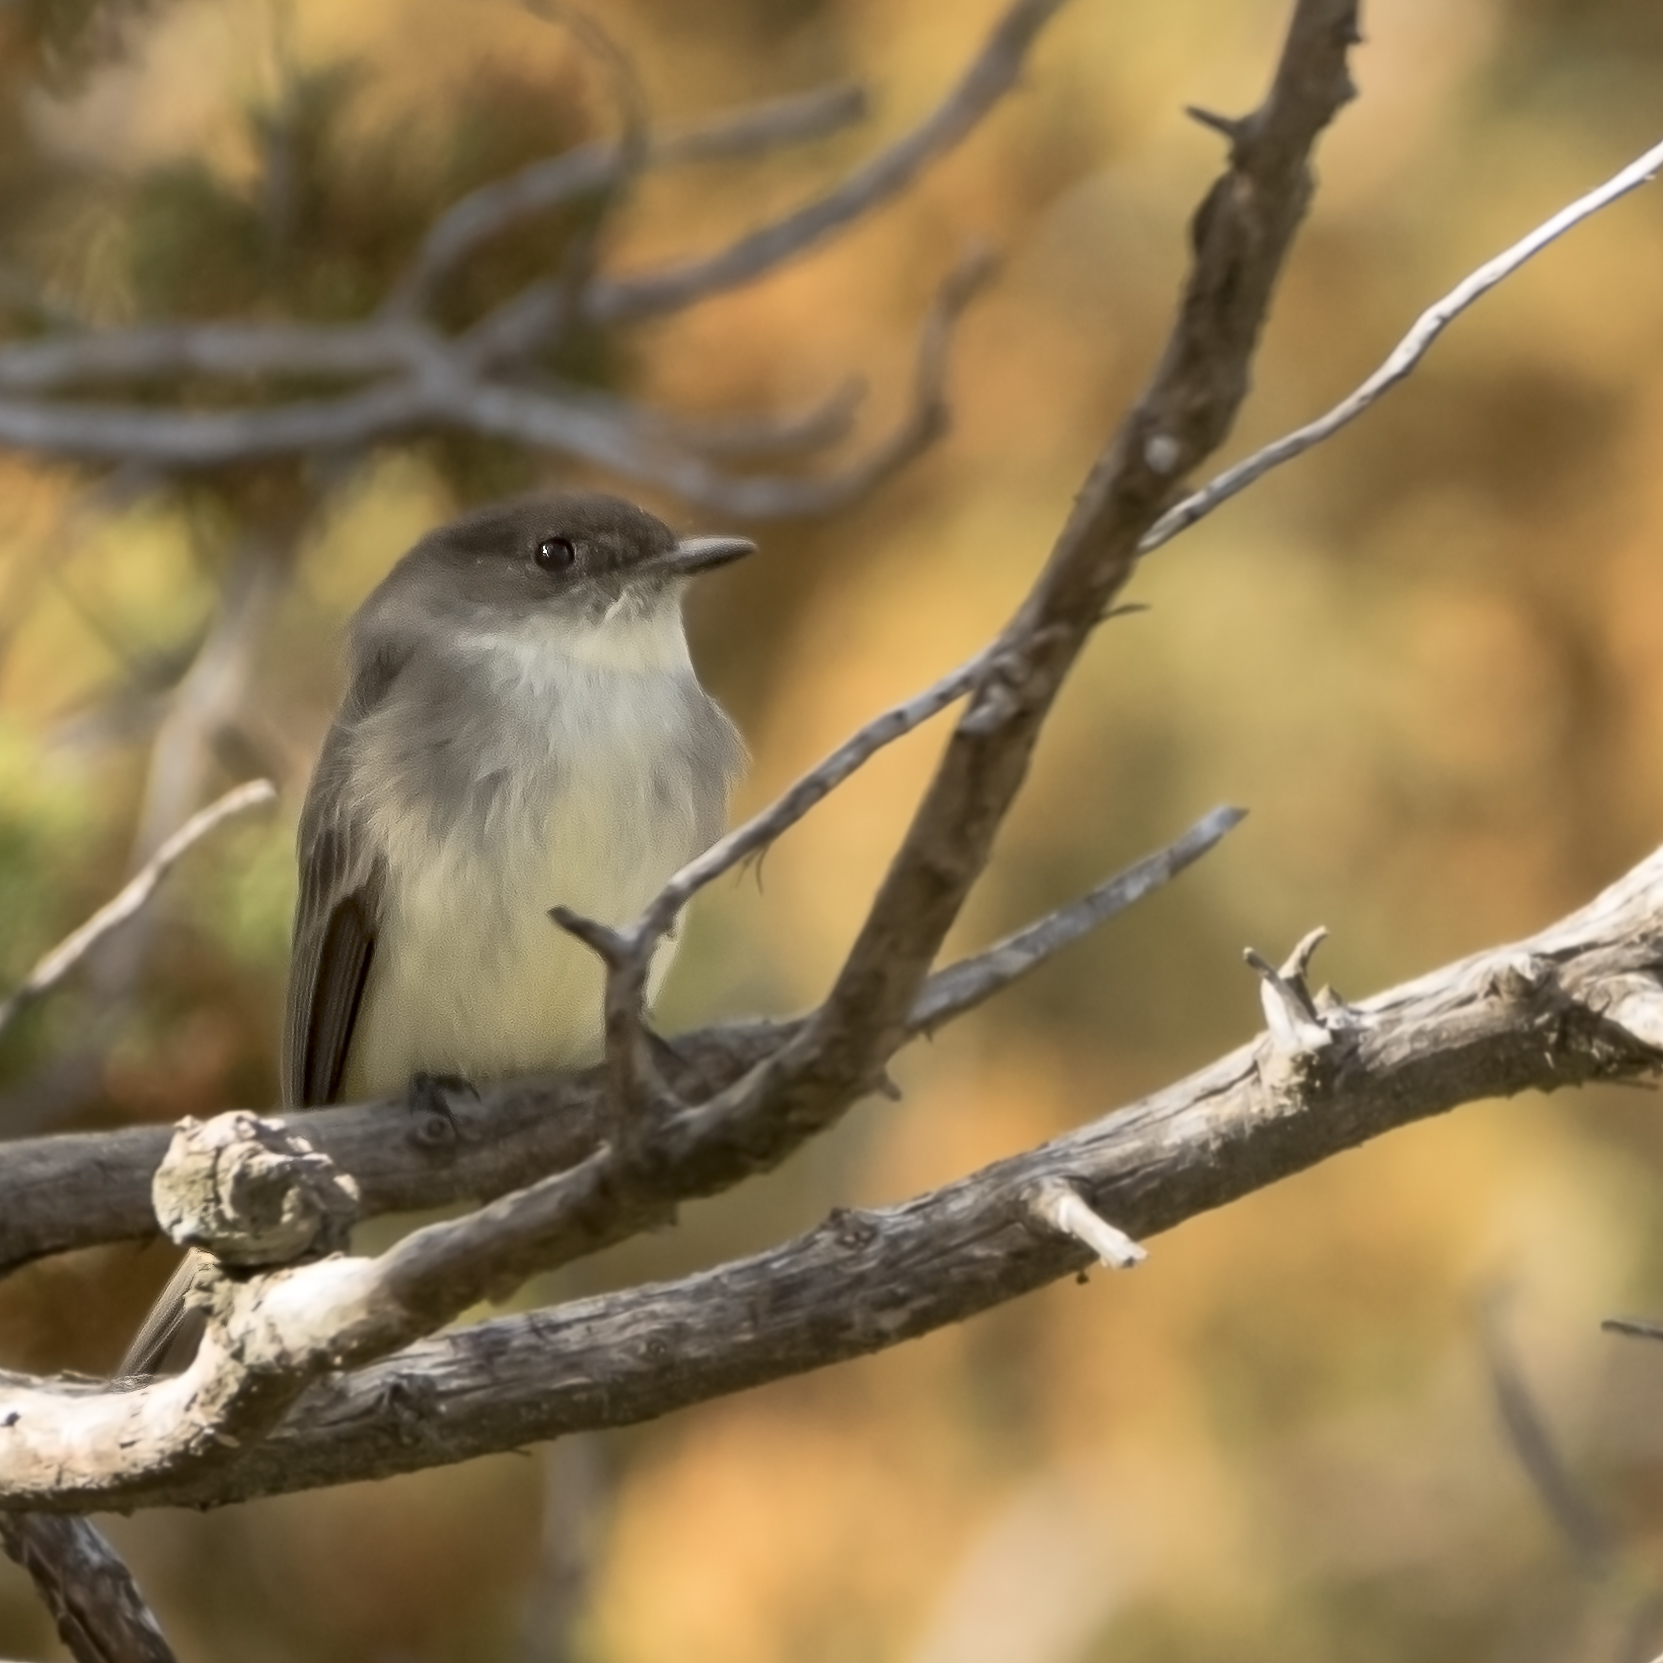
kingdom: Animalia
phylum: Chordata
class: Aves
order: Passeriformes
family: Tyrannidae
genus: Sayornis
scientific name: Sayornis phoebe
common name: Eastern phoebe
